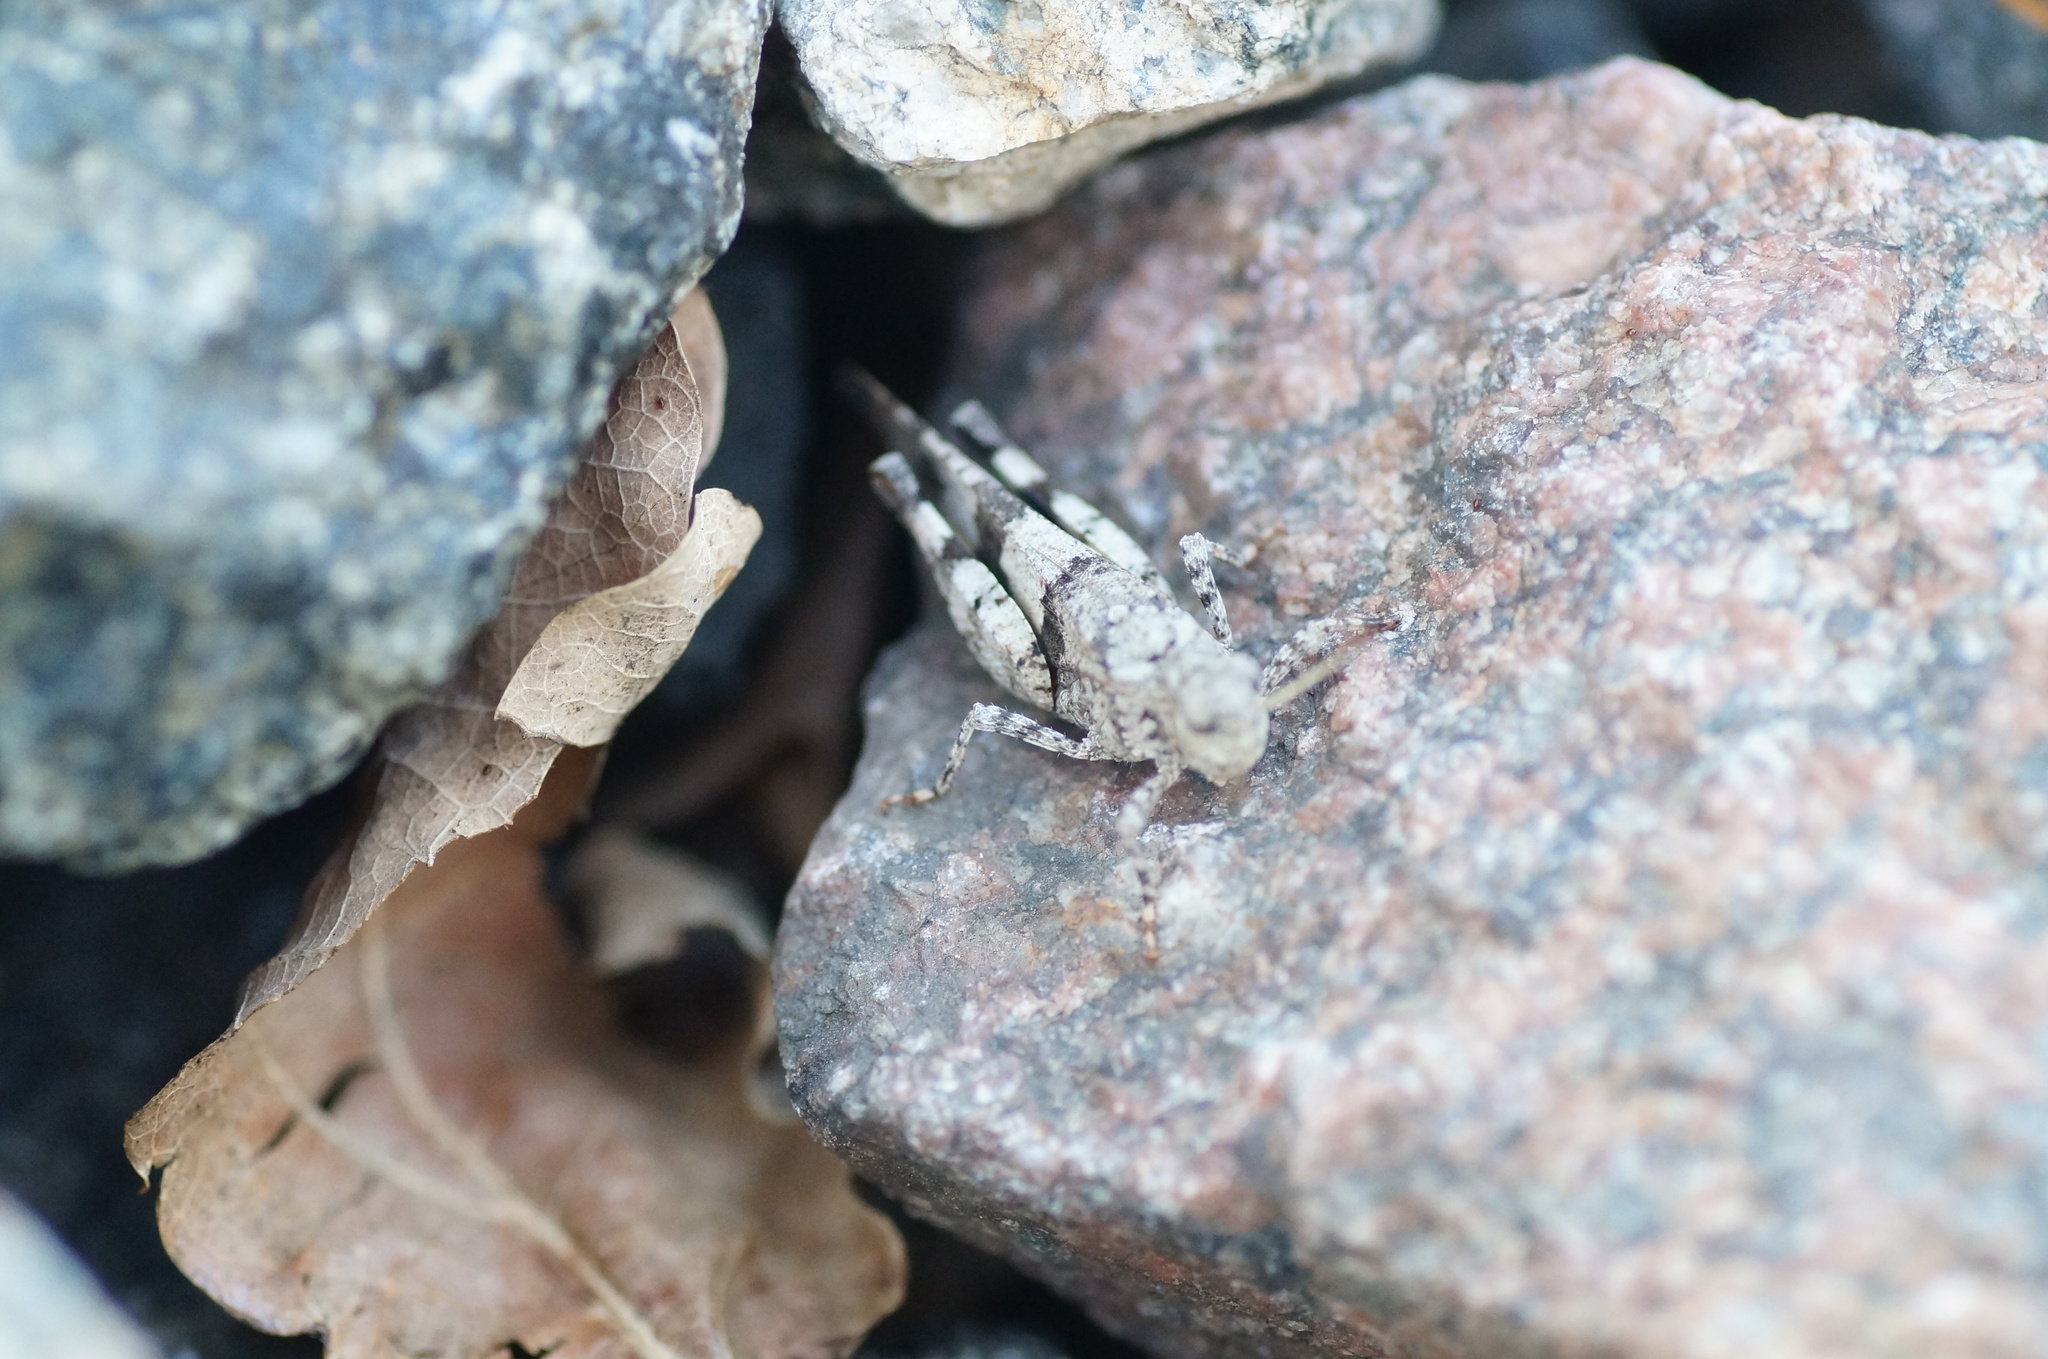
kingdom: Animalia
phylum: Arthropoda
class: Insecta
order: Orthoptera
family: Acrididae
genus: Oedipoda
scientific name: Oedipoda caerulescens
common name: Blue-winged grasshopper
